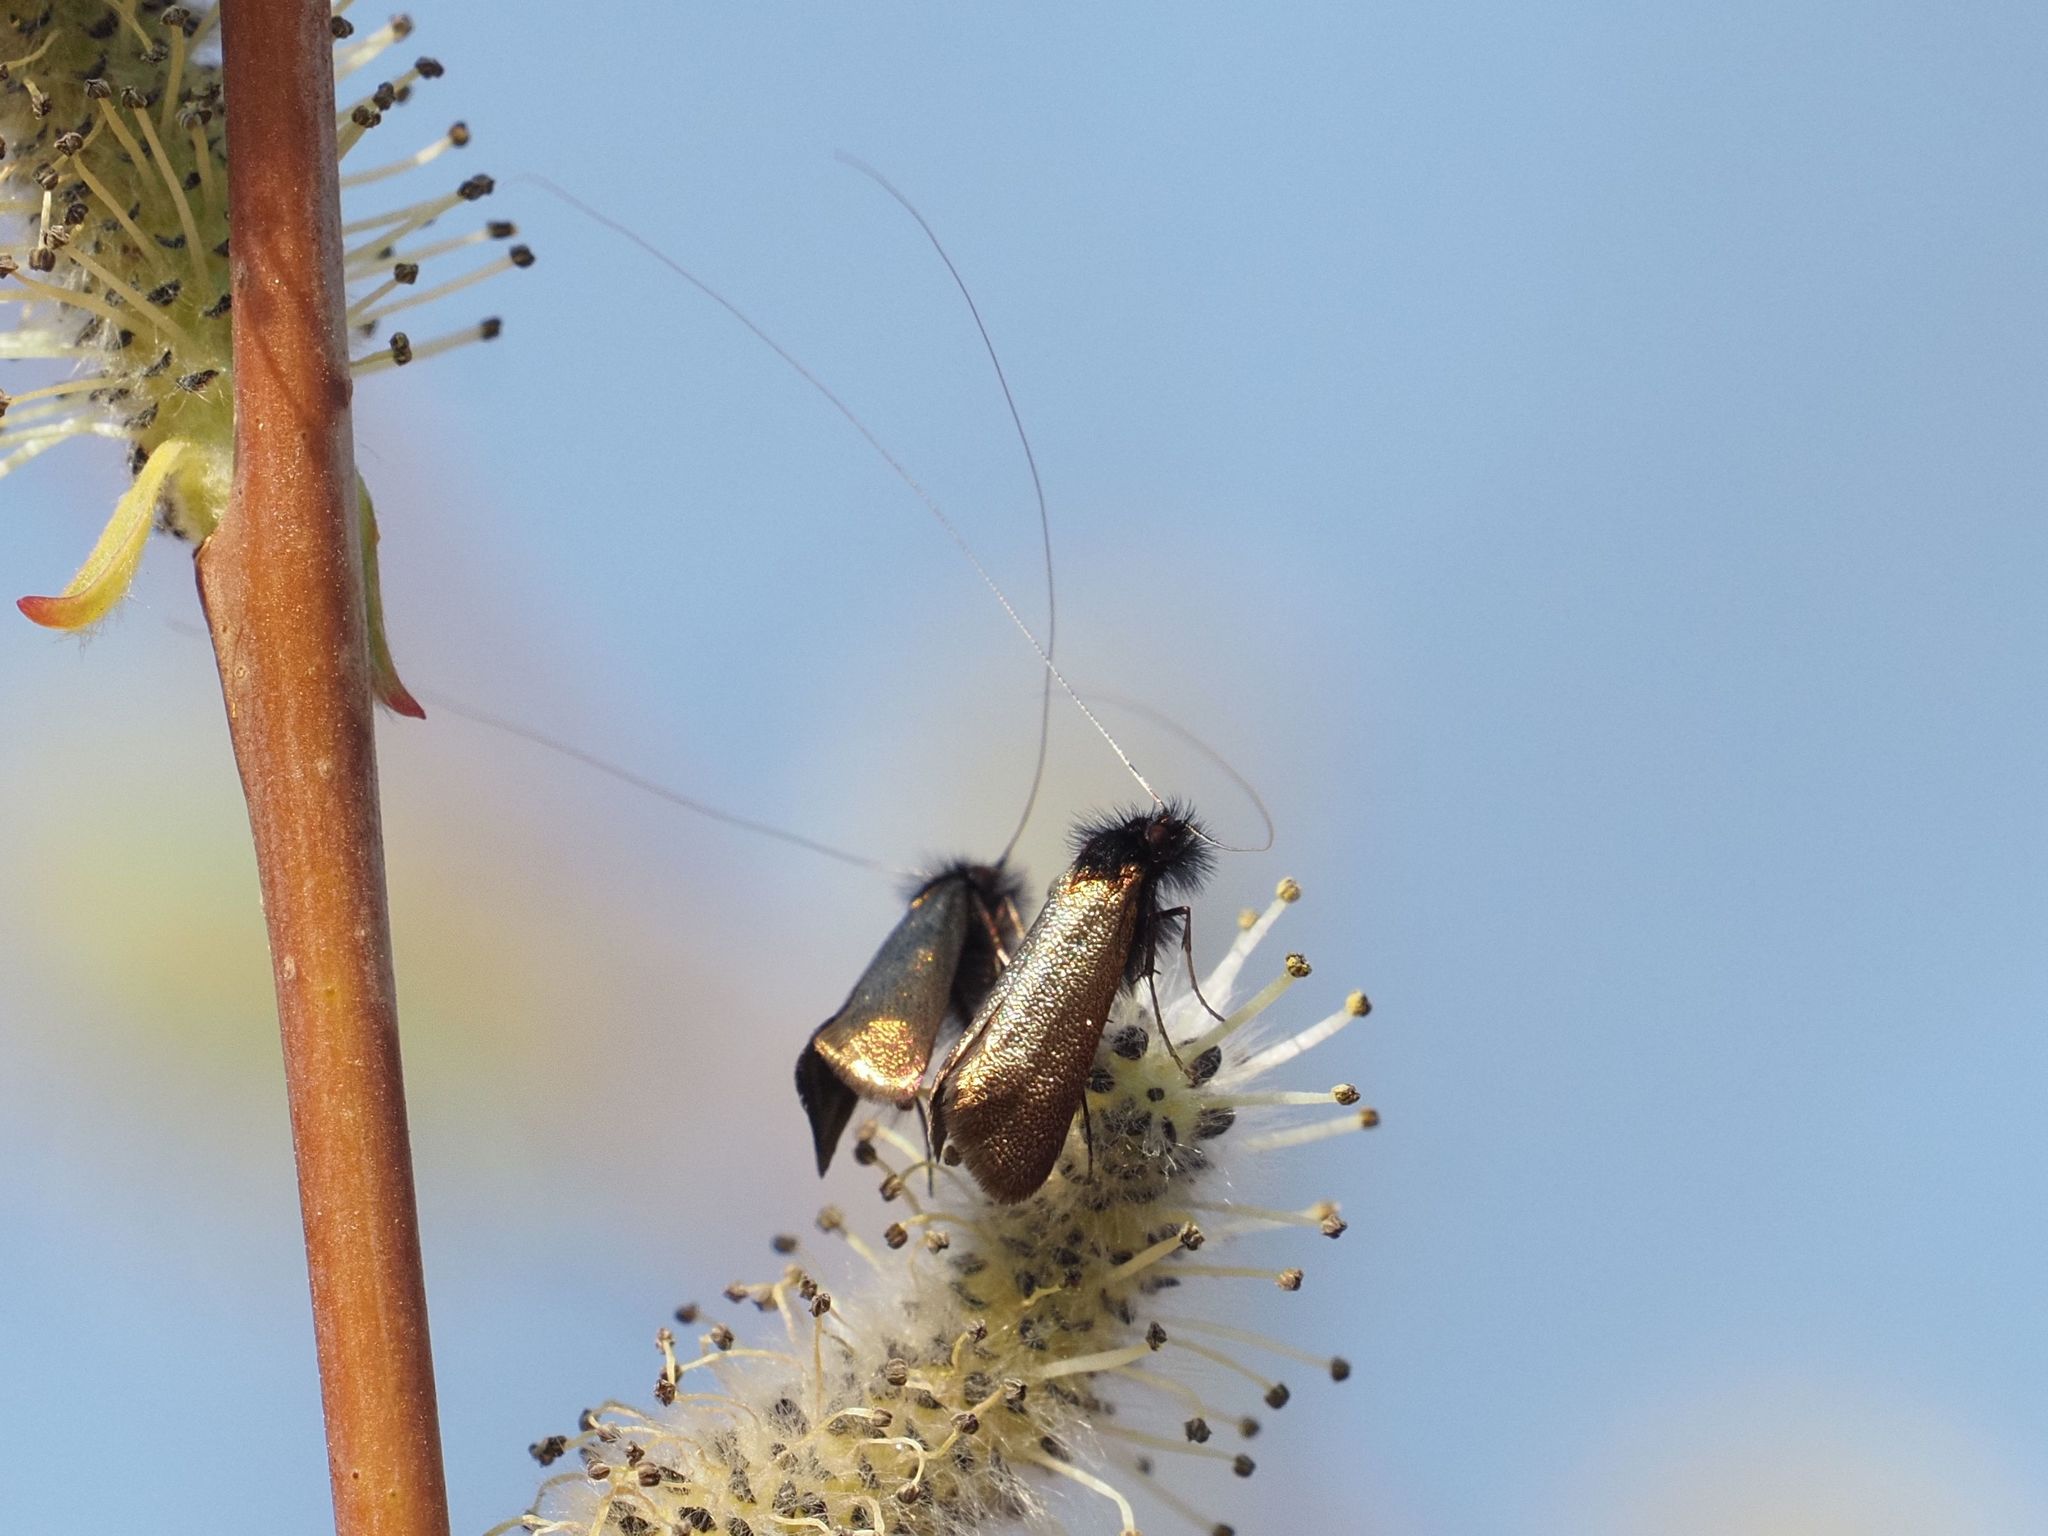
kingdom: Animalia
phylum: Arthropoda
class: Insecta
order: Lepidoptera
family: Adelidae
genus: Adela
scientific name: Adela cuprella
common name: Early long-horn
